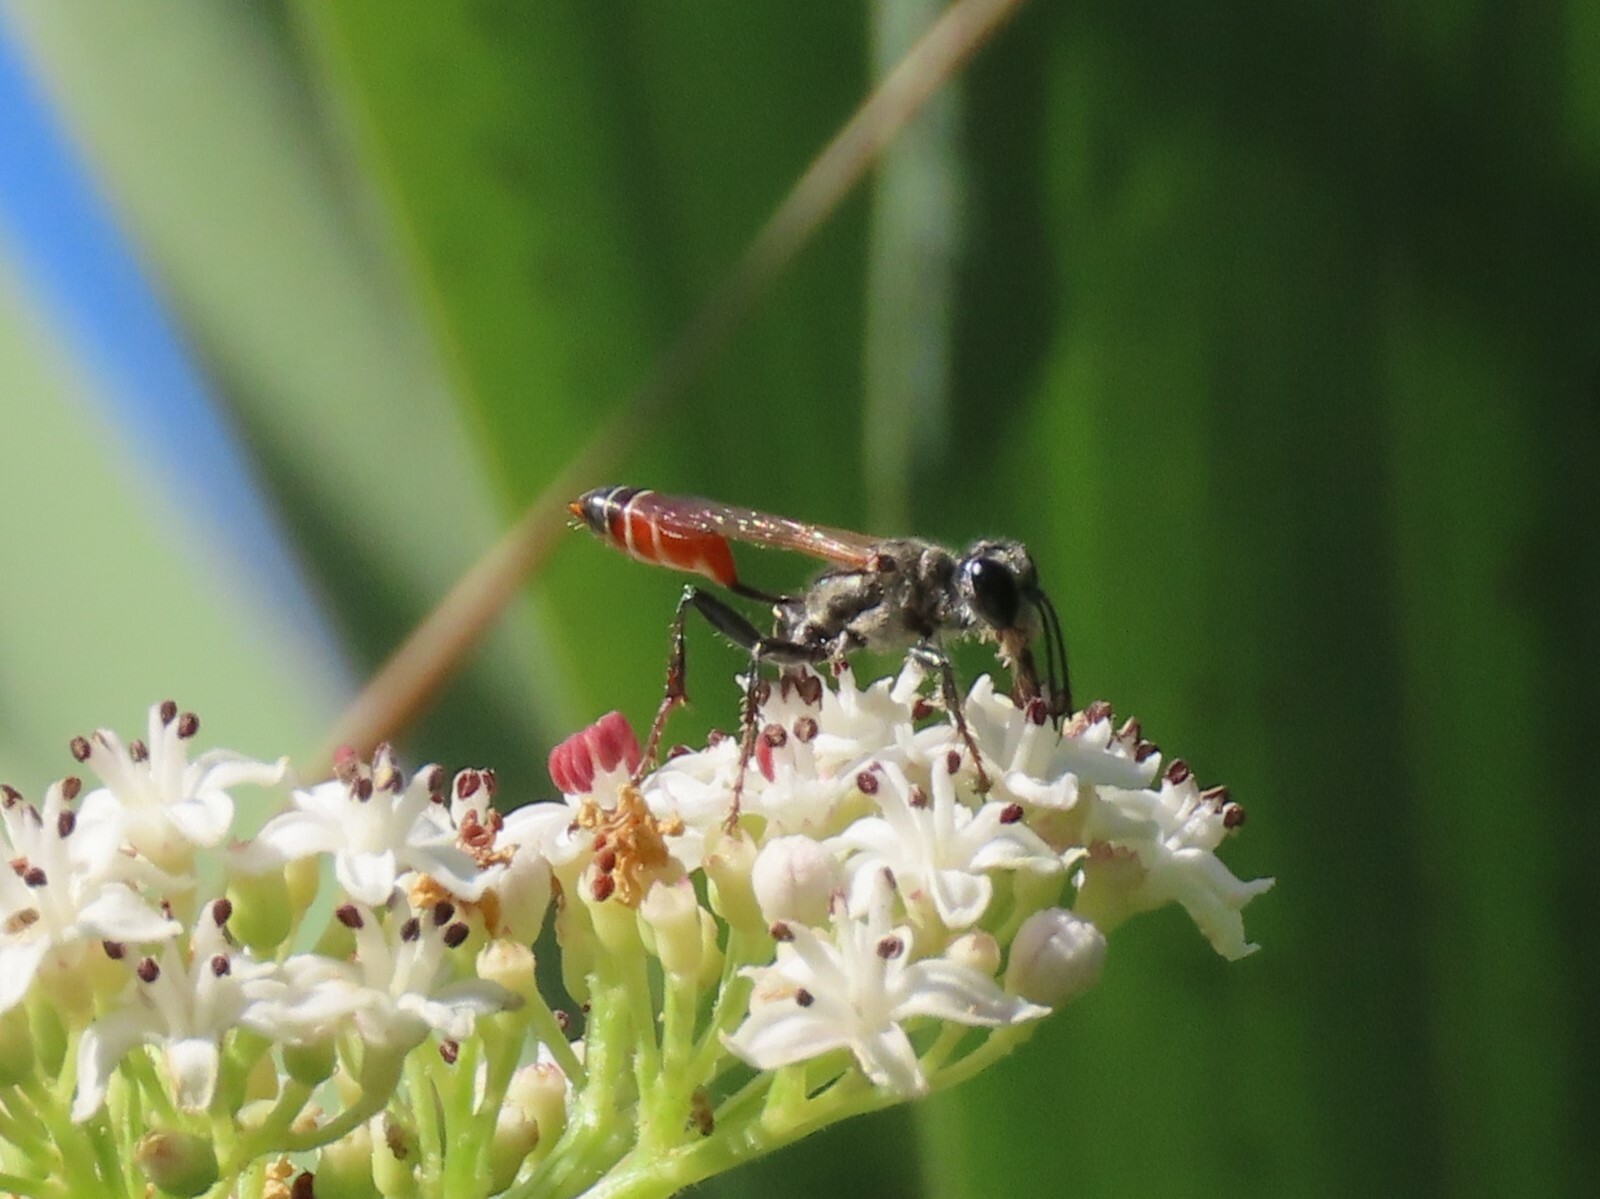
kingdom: Animalia
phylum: Arthropoda
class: Insecta
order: Hymenoptera
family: Sphecidae
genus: Prionyx
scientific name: Prionyx kirbii
